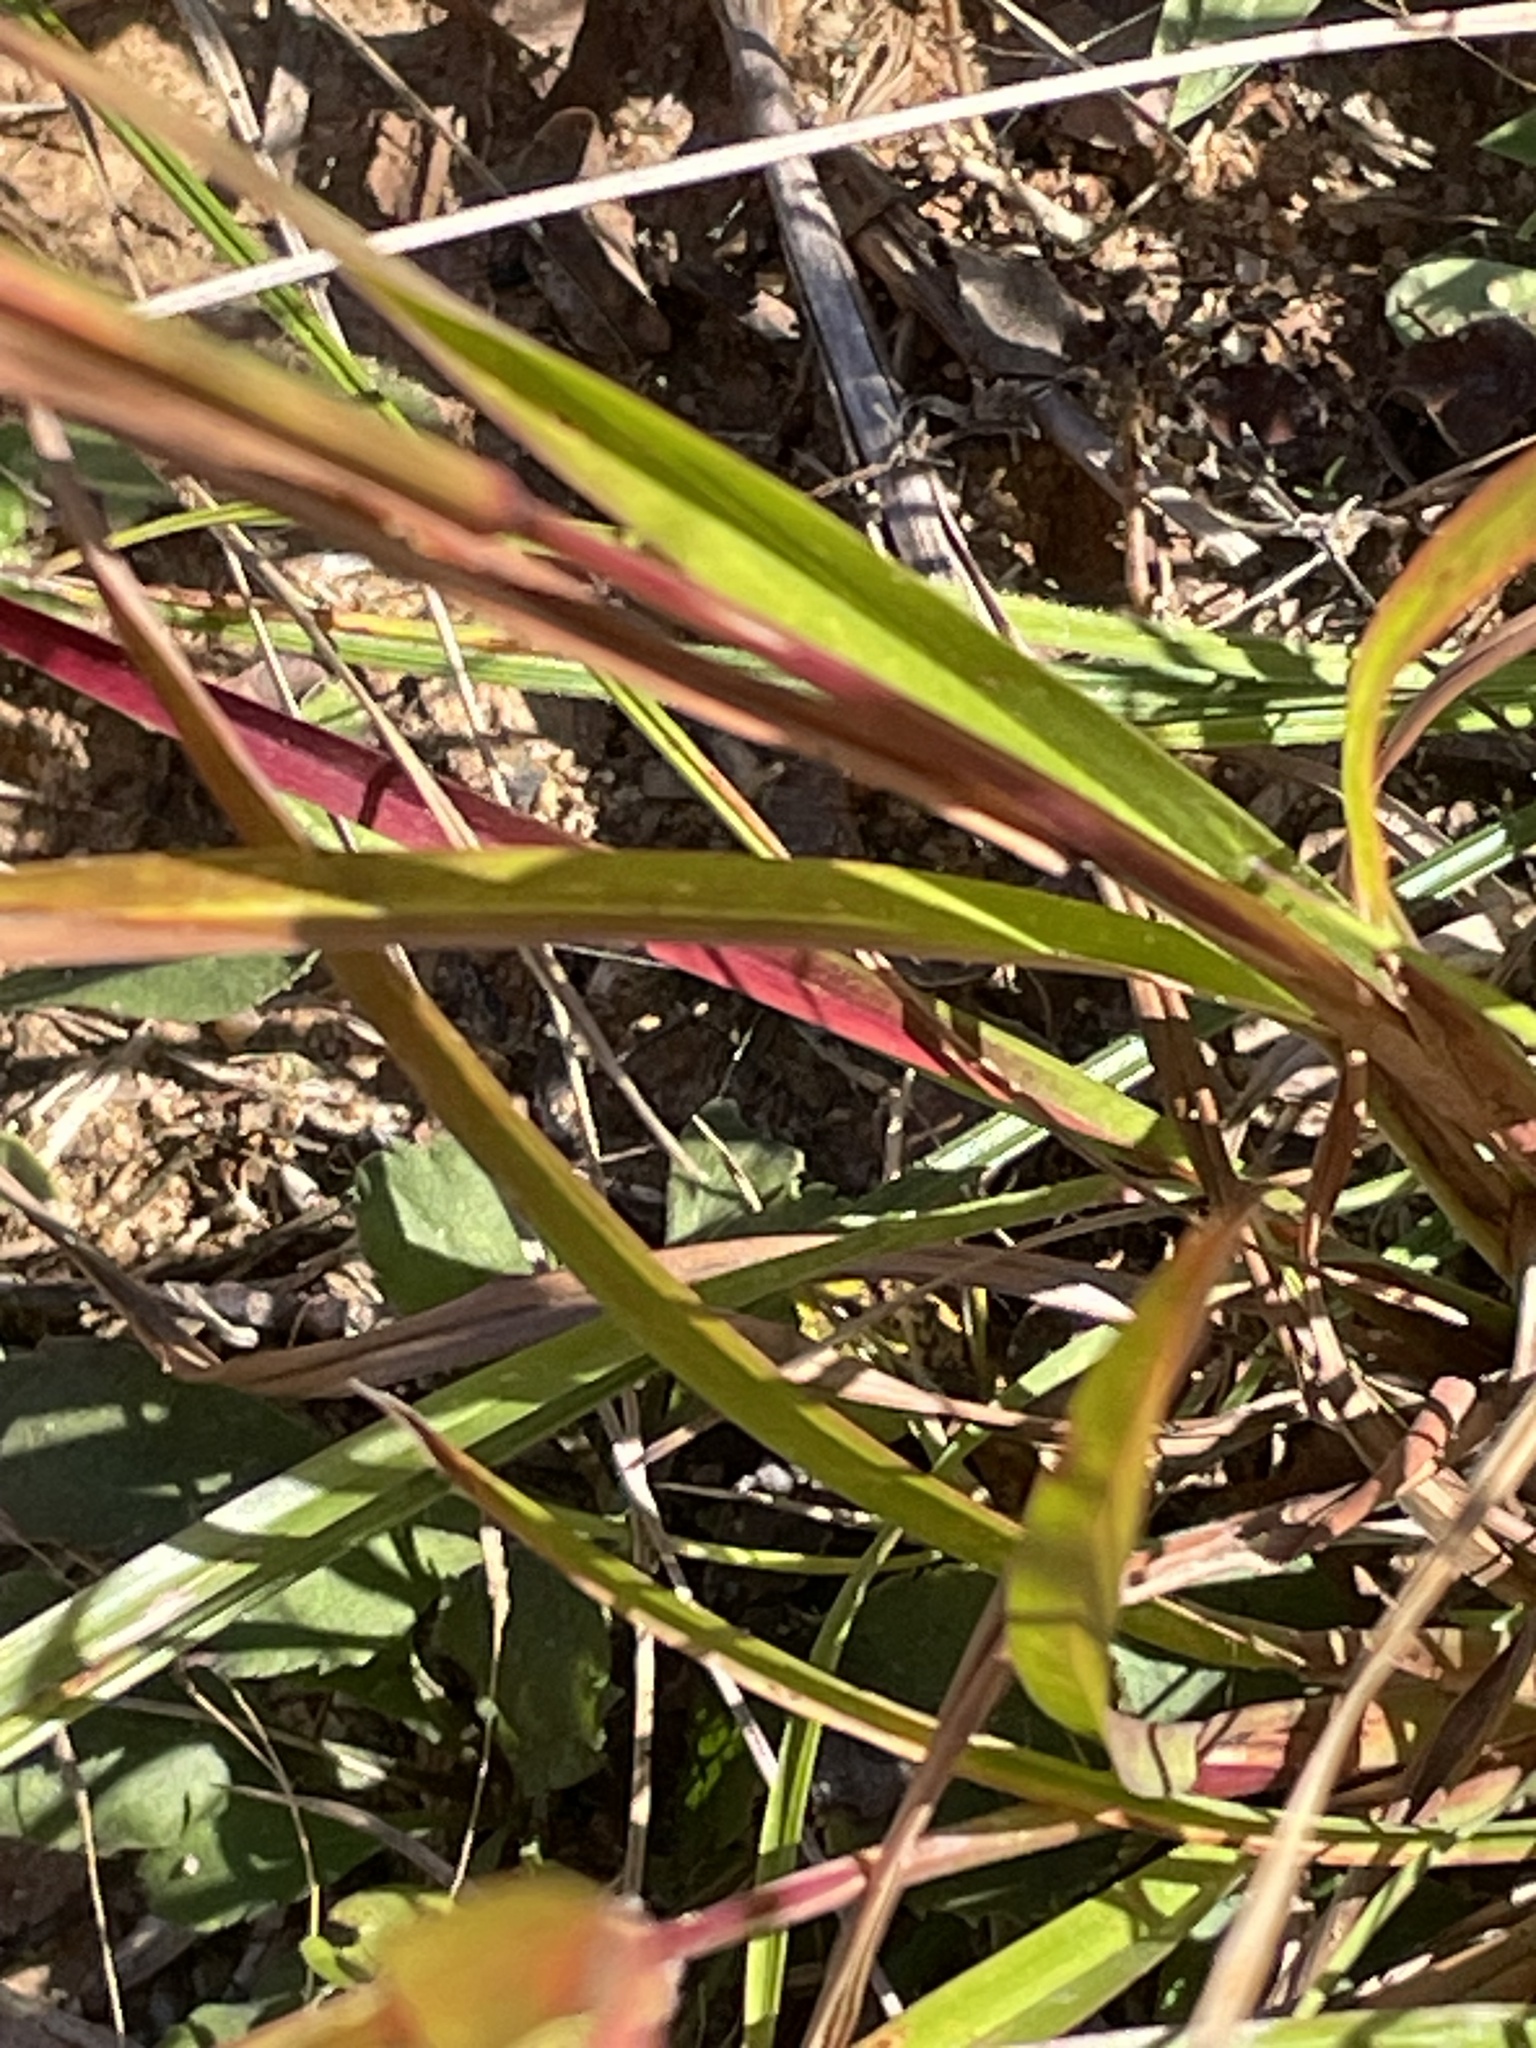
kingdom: Plantae
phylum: Tracheophyta
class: Liliopsida
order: Poales
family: Poaceae
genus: Schizachyrium
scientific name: Schizachyrium scoparium
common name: Little bluestem
